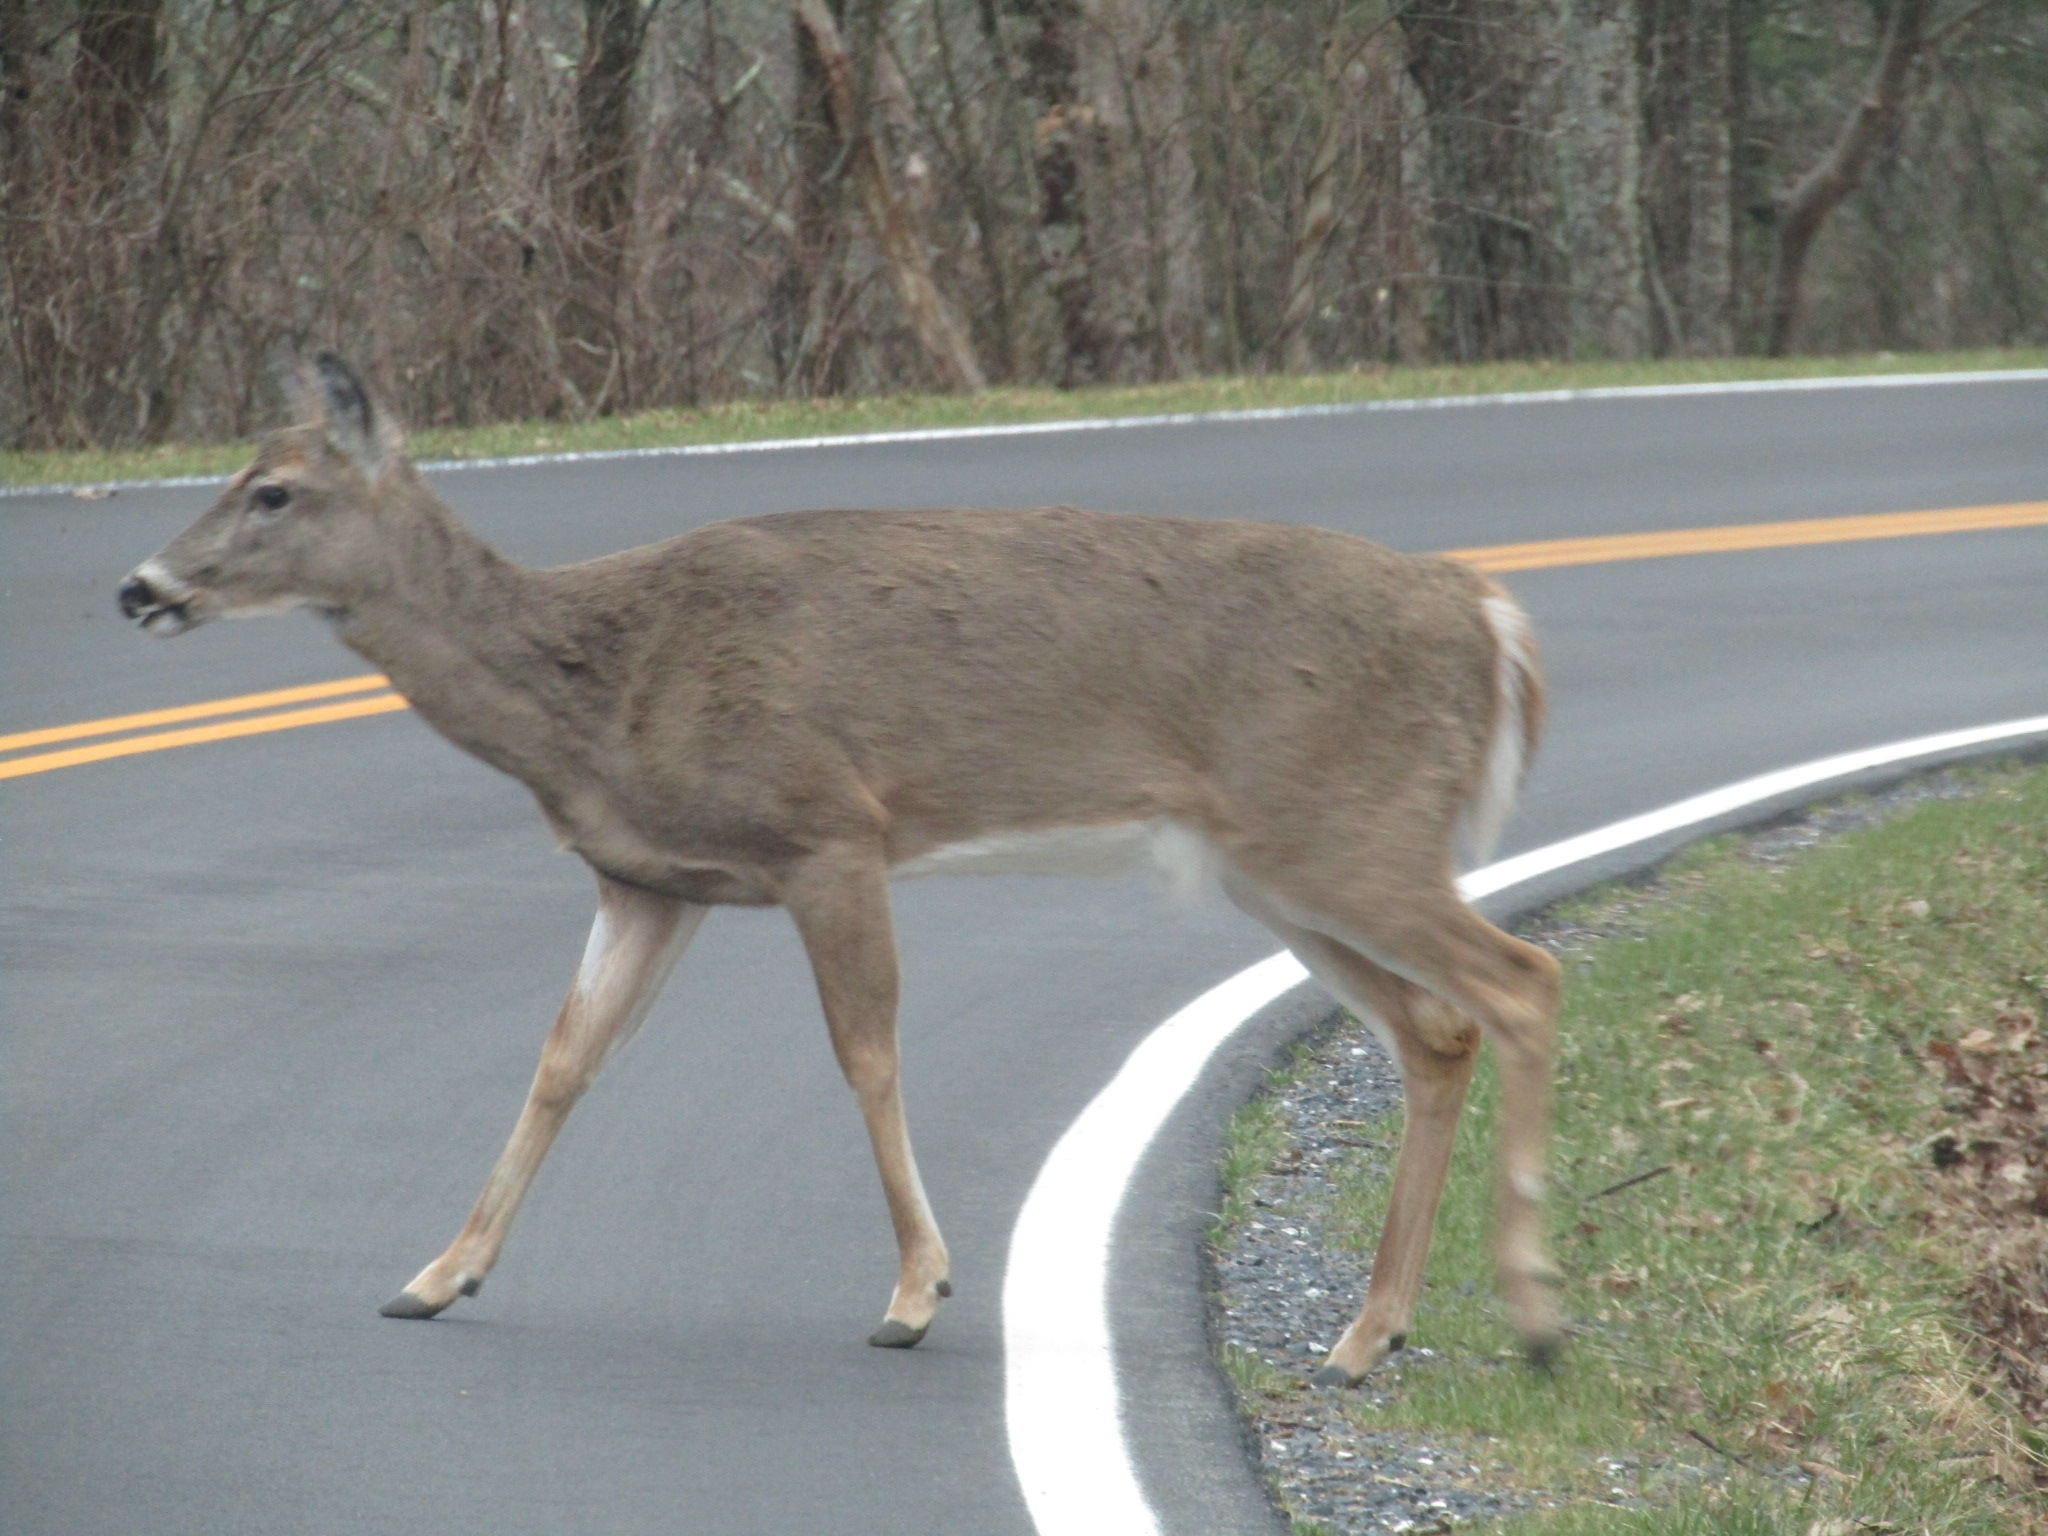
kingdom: Animalia
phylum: Chordata
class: Mammalia
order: Artiodactyla
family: Cervidae
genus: Odocoileus
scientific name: Odocoileus virginianus
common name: White-tailed deer
